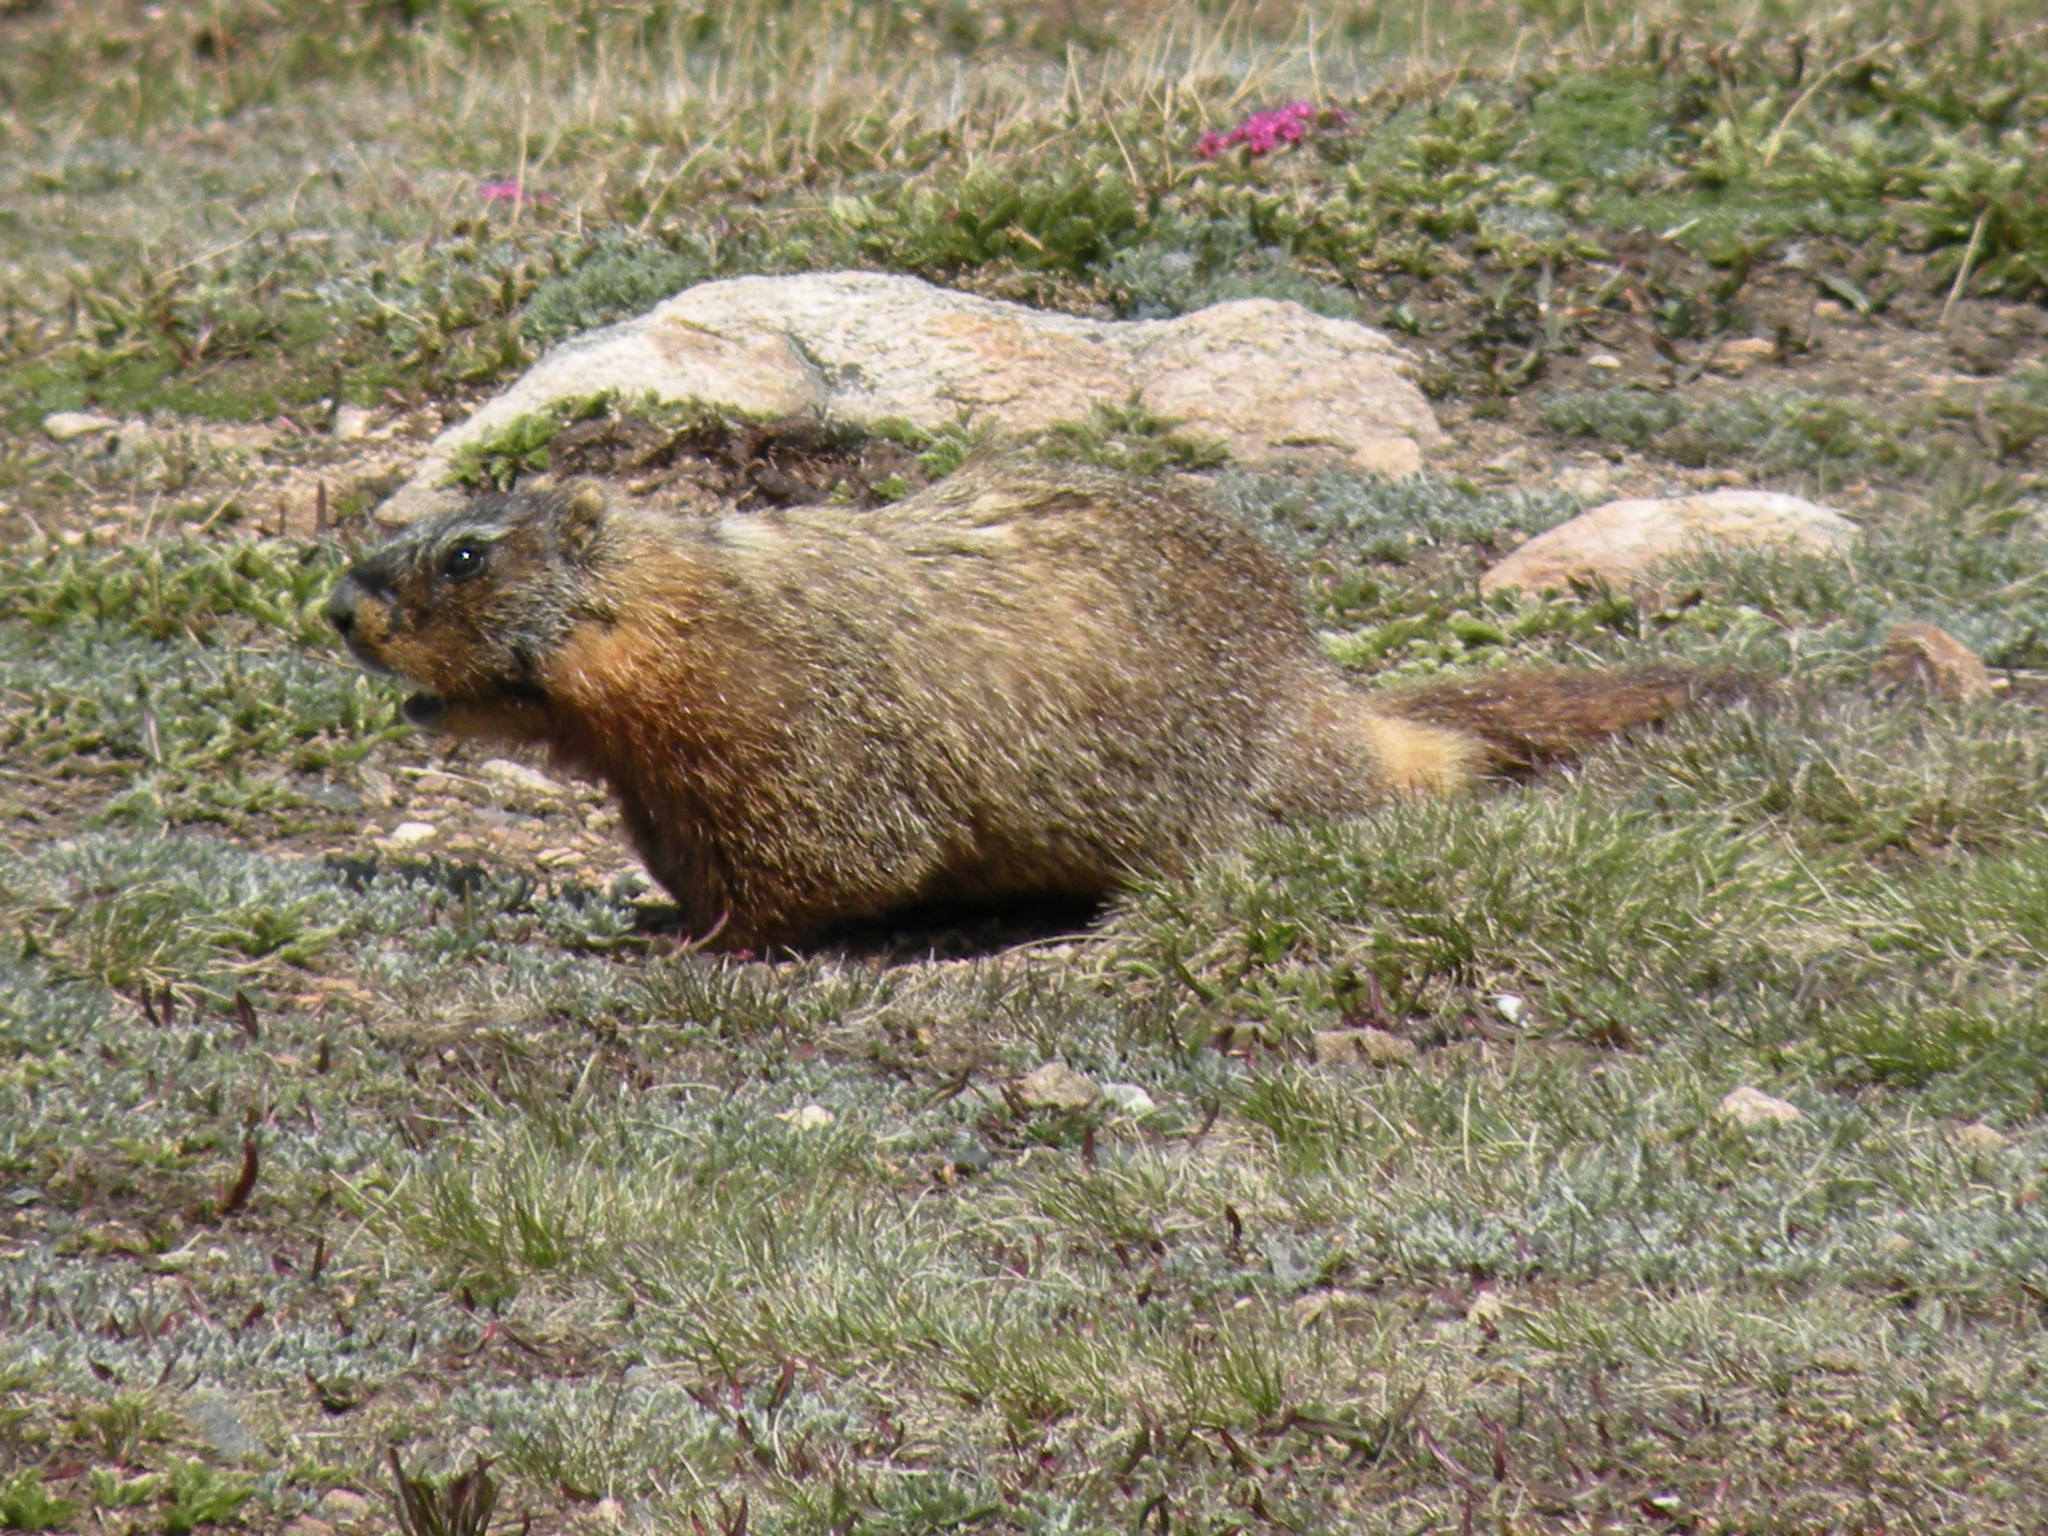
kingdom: Animalia
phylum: Chordata
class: Mammalia
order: Rodentia
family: Sciuridae
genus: Marmota
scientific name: Marmota flaviventris
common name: Yellow-bellied marmot
